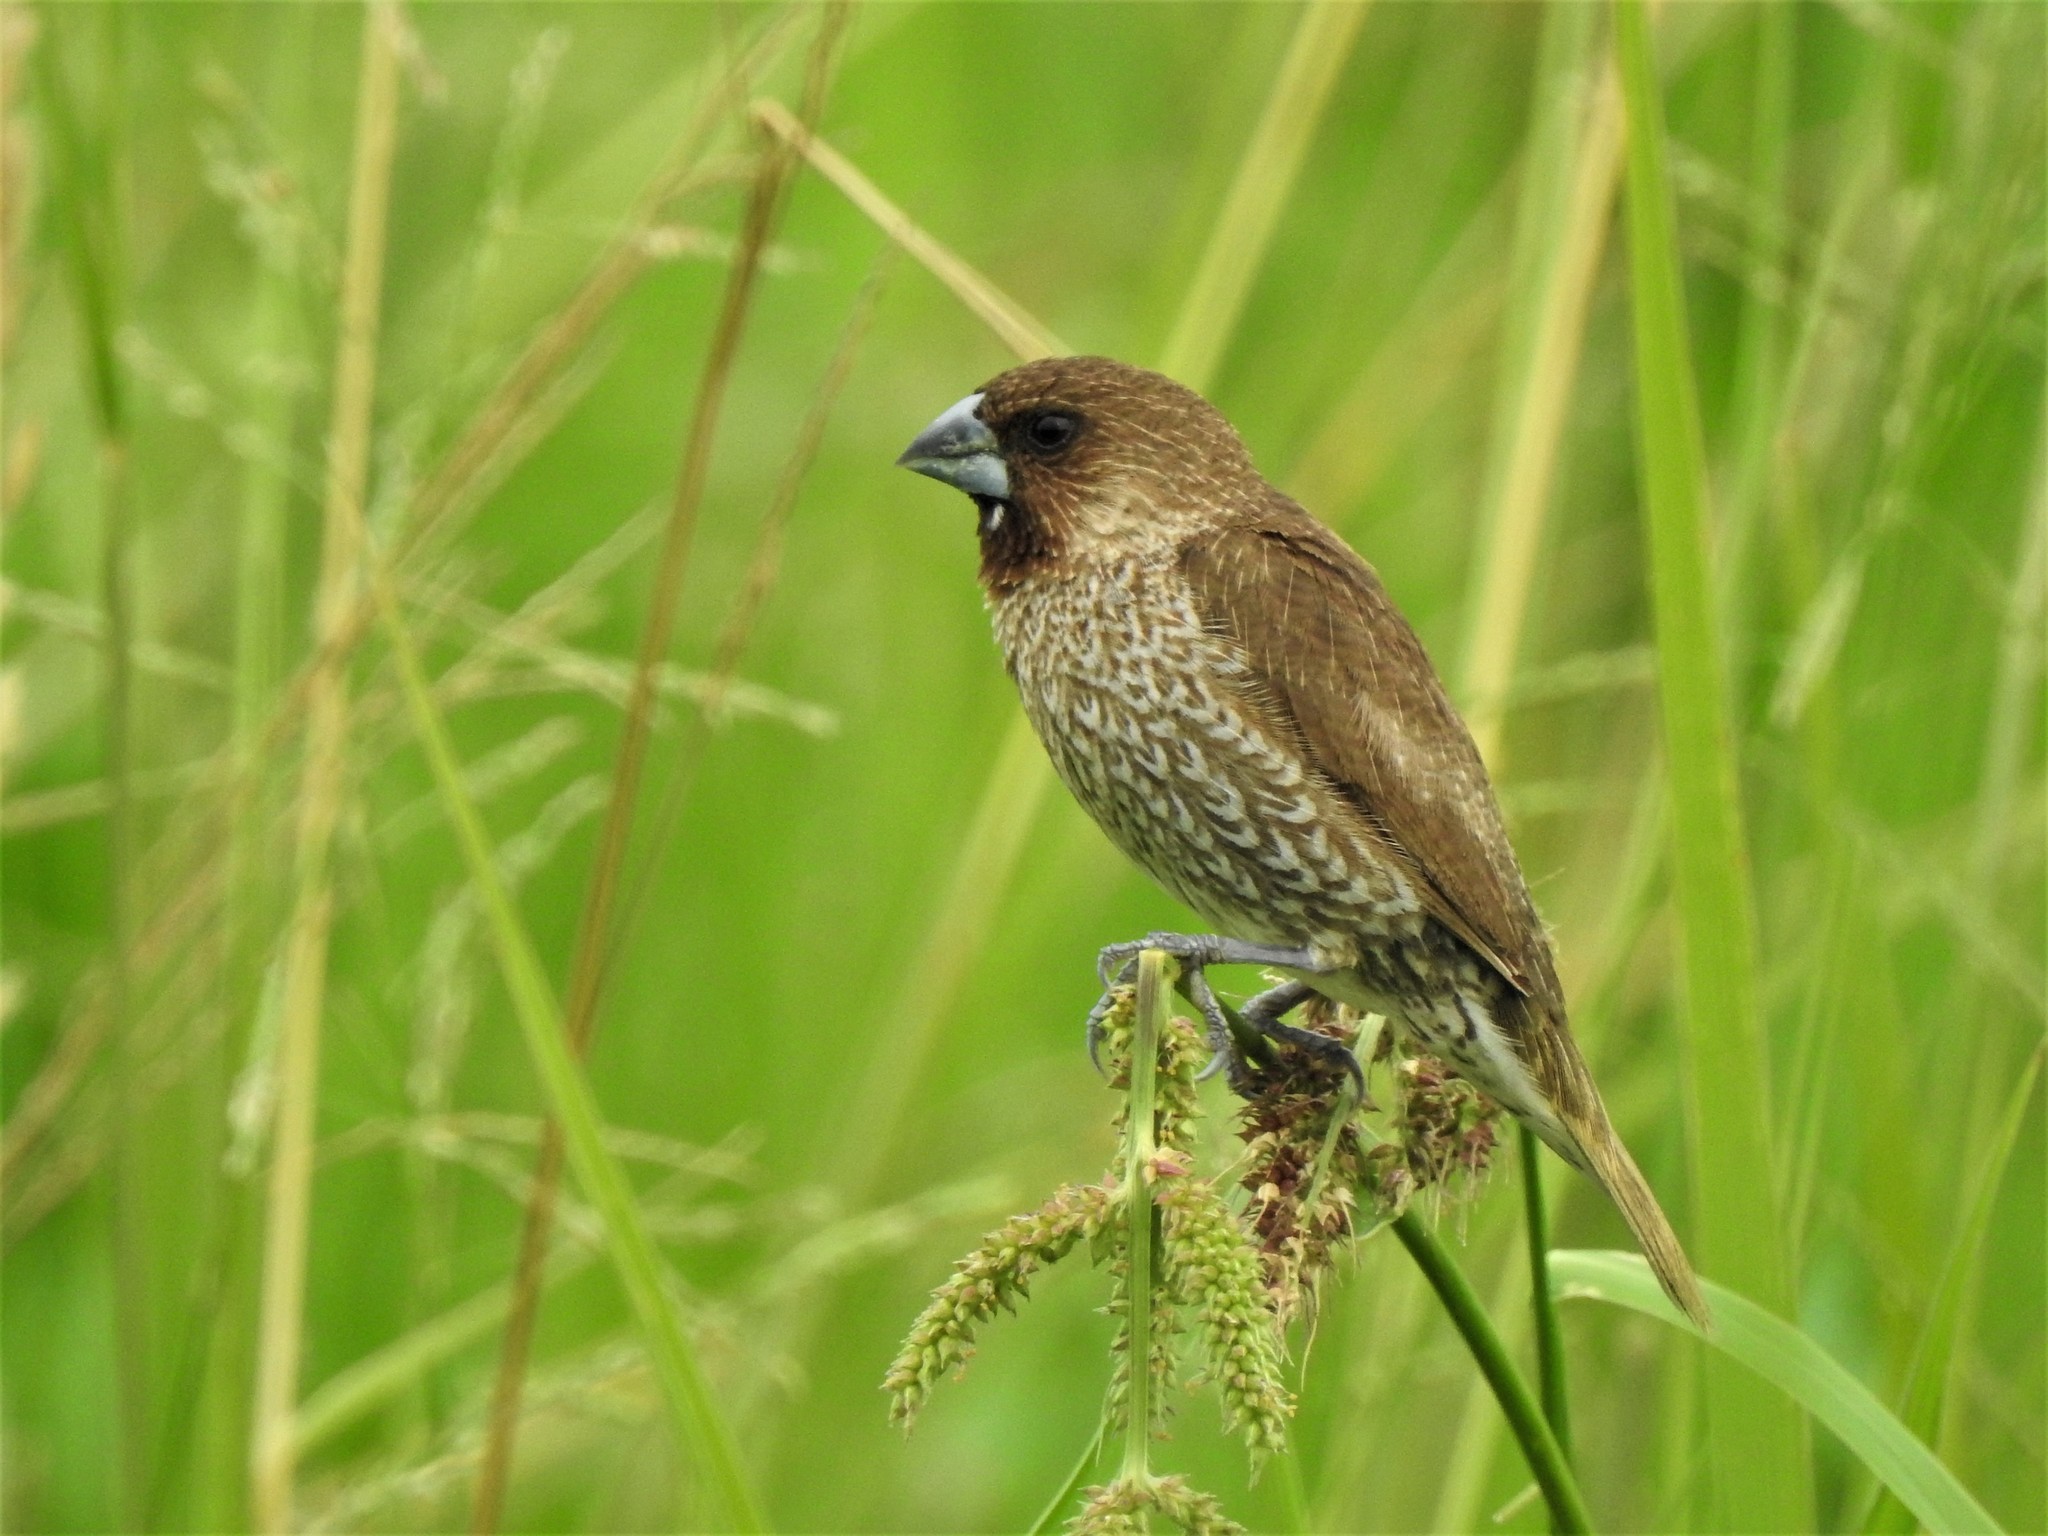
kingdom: Animalia
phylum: Chordata
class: Aves
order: Passeriformes
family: Estrildidae
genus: Lonchura
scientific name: Lonchura punctulata
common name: Scaly-breasted munia
